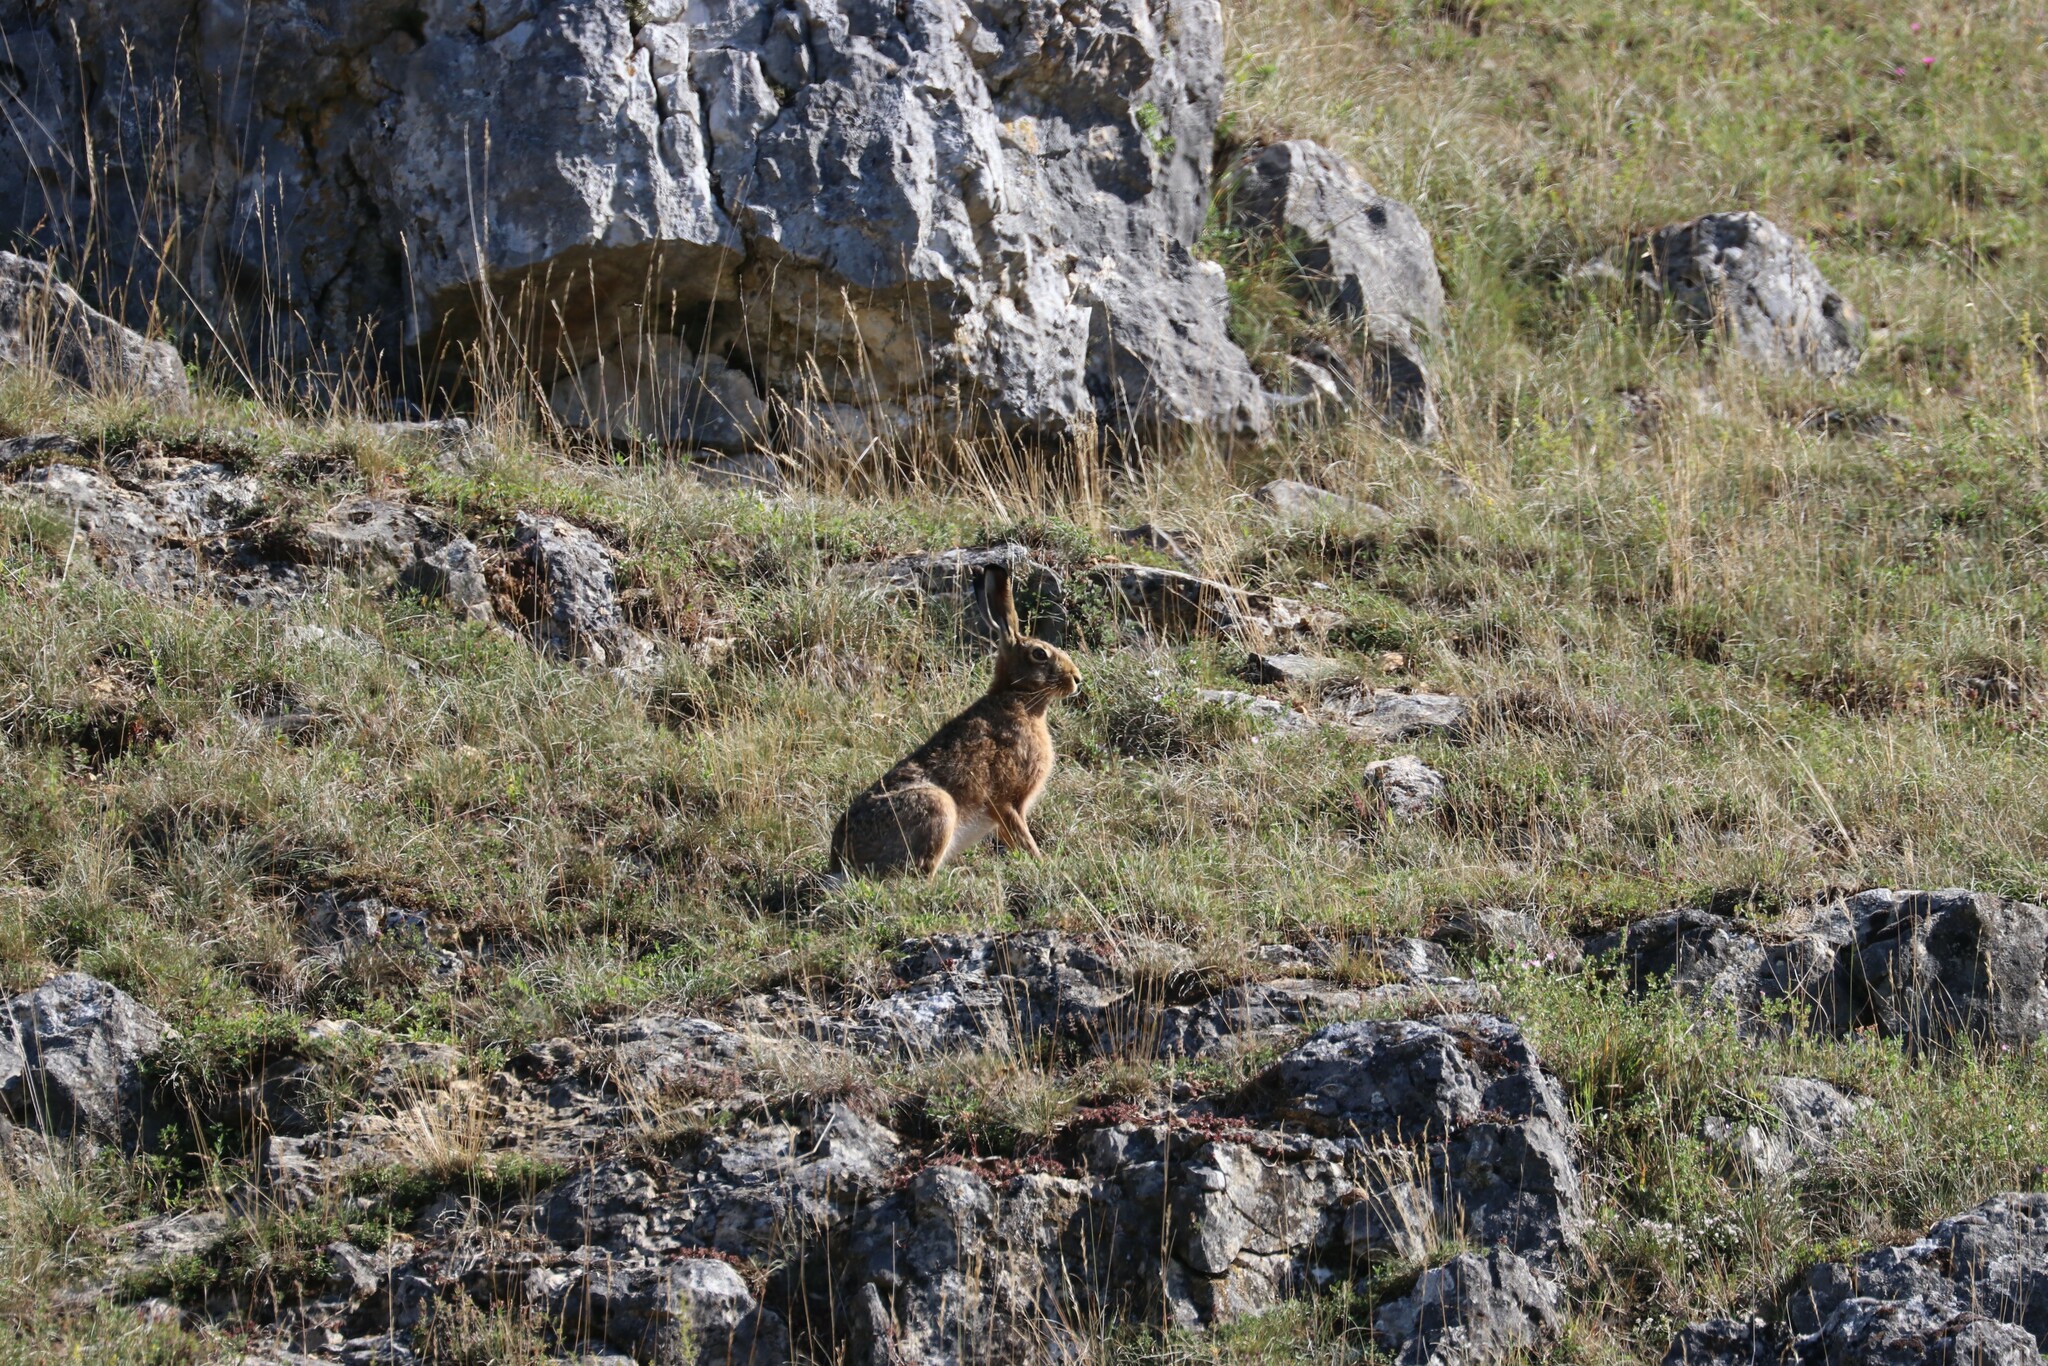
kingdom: Animalia
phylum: Chordata
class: Mammalia
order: Lagomorpha
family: Leporidae
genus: Lepus
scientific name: Lepus europaeus
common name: European hare
